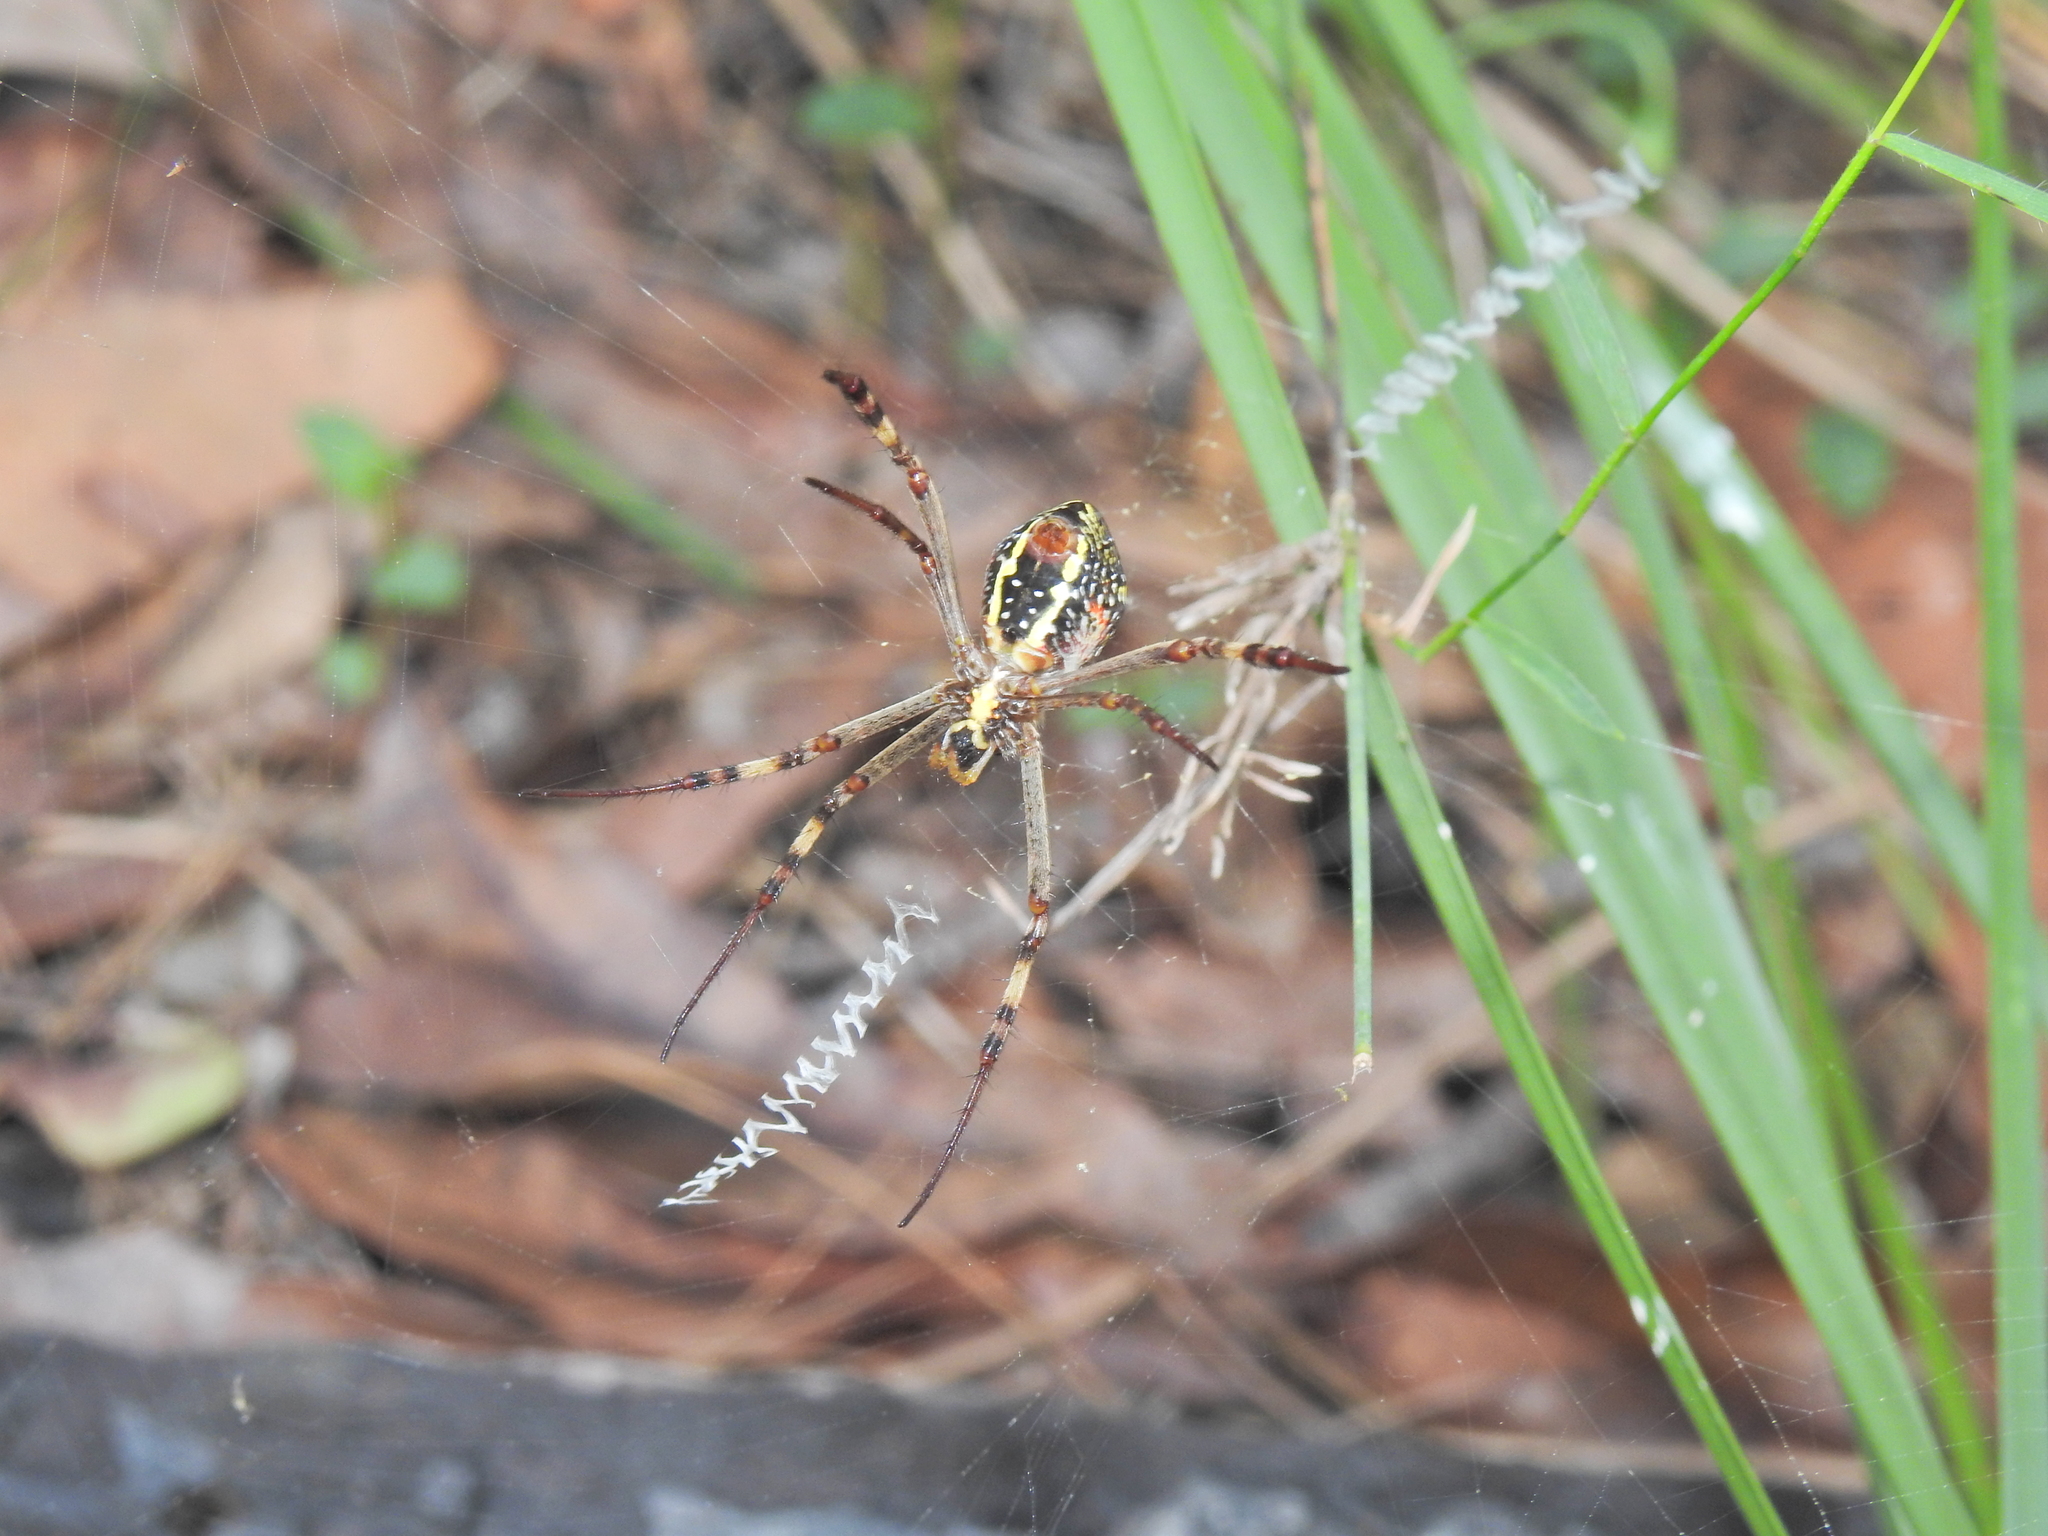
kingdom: Animalia
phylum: Arthropoda
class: Arachnida
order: Araneae
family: Araneidae
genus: Argiope
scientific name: Argiope keyserlingi
